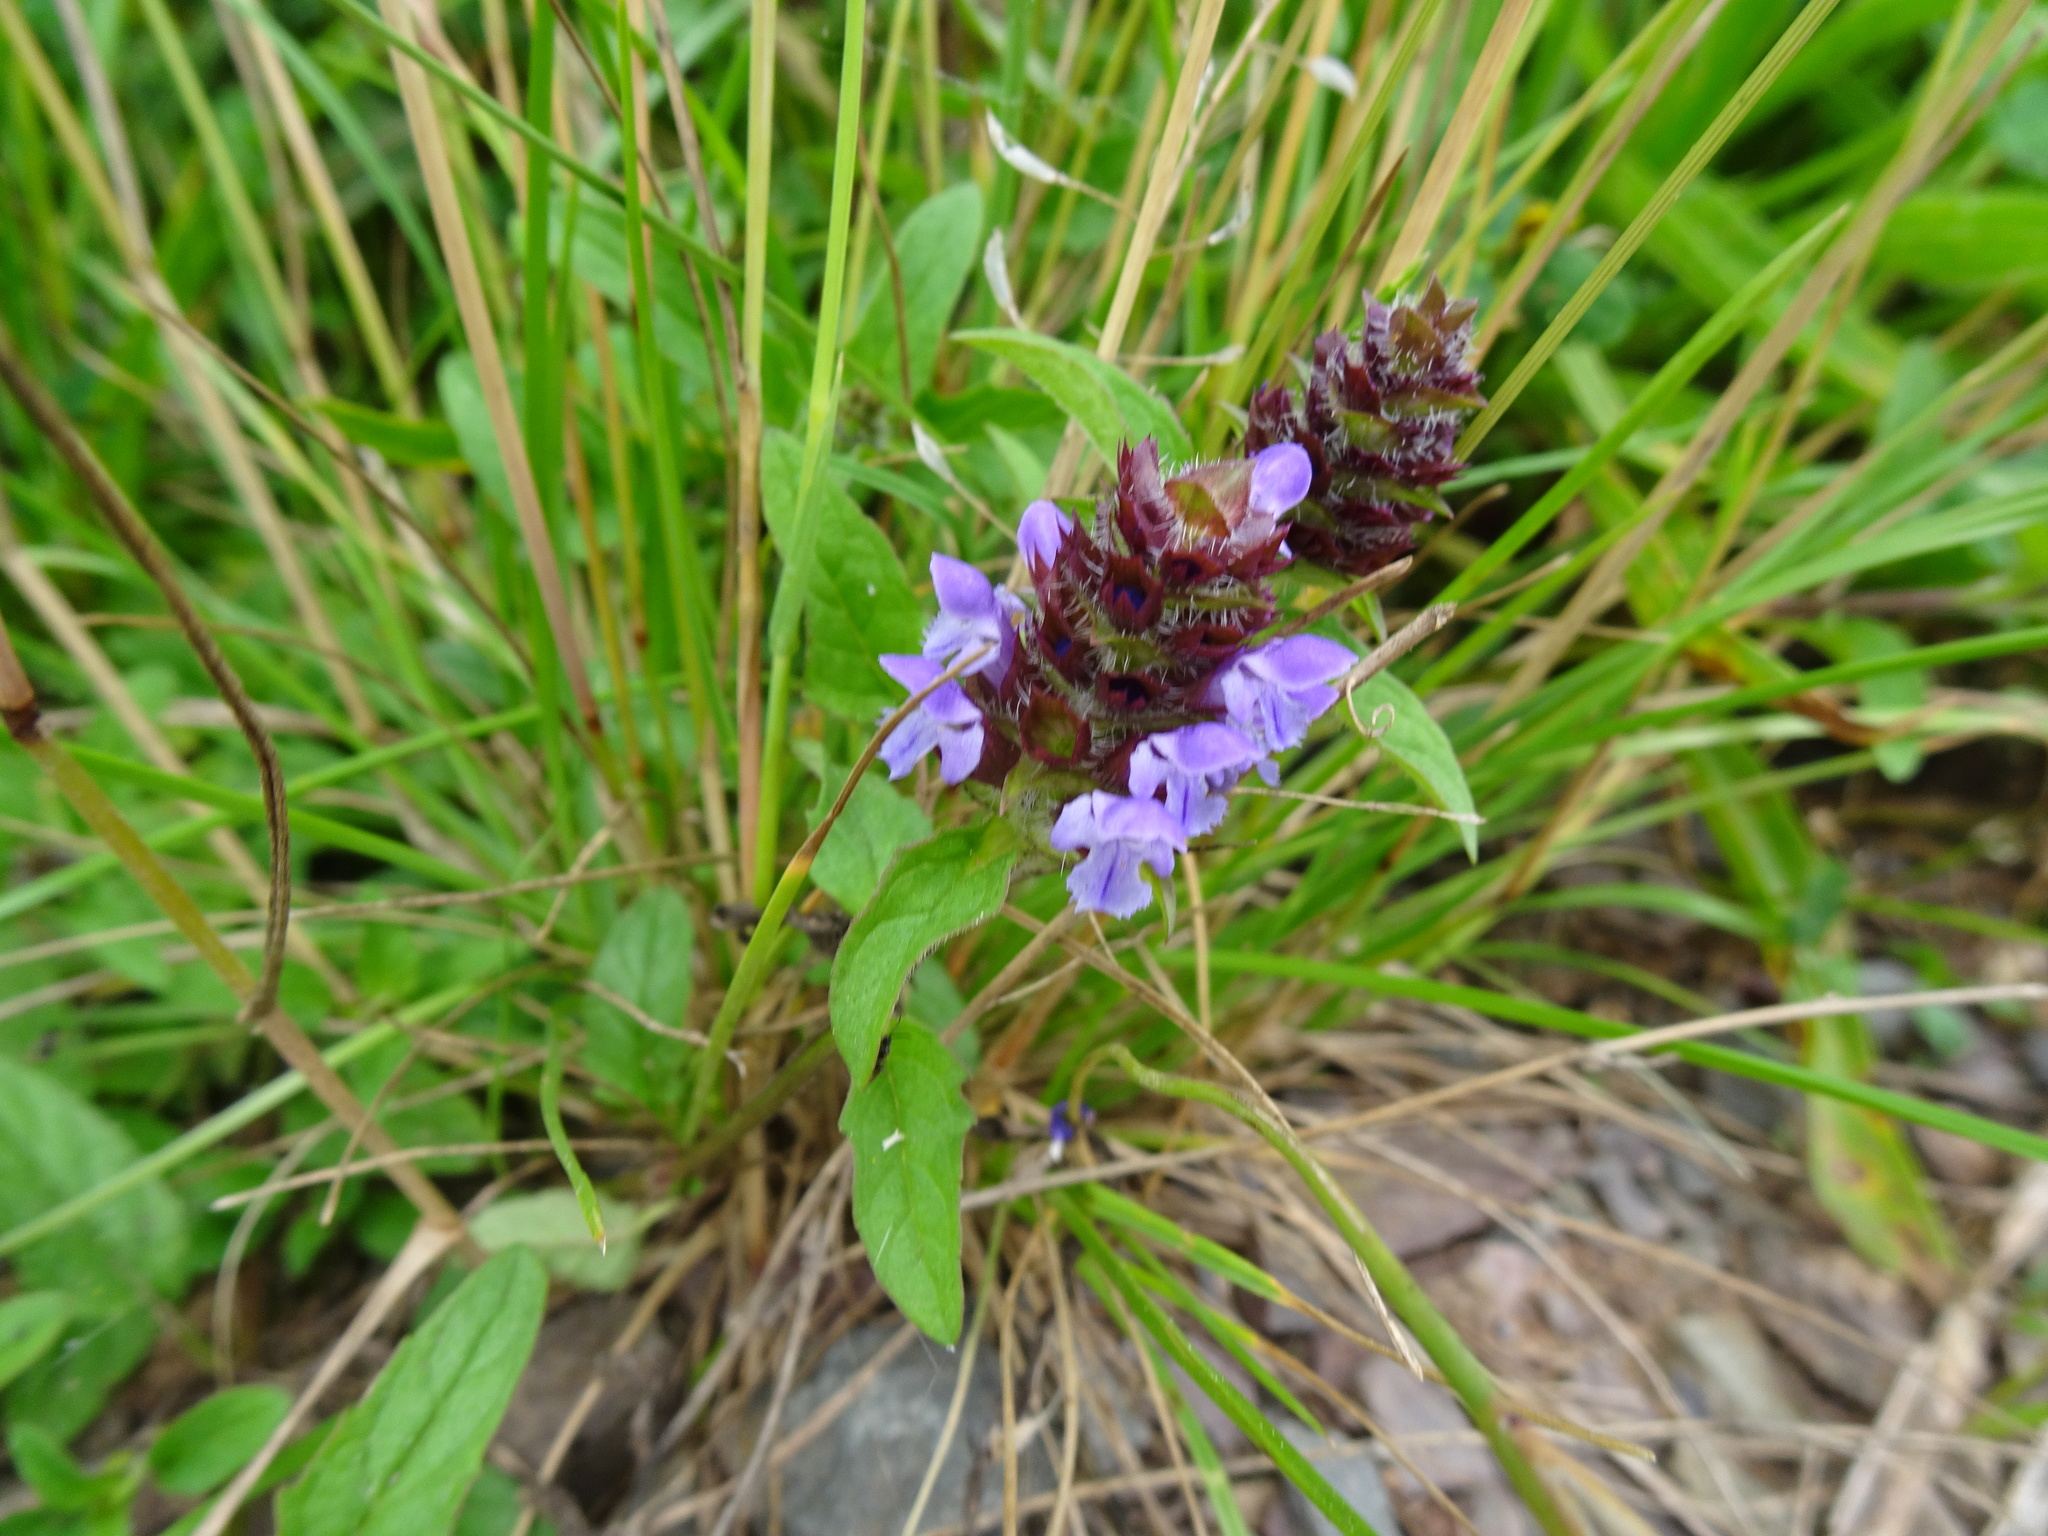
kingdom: Plantae
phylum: Tracheophyta
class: Magnoliopsida
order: Lamiales
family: Lamiaceae
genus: Prunella
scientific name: Prunella vulgaris
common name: Heal-all
